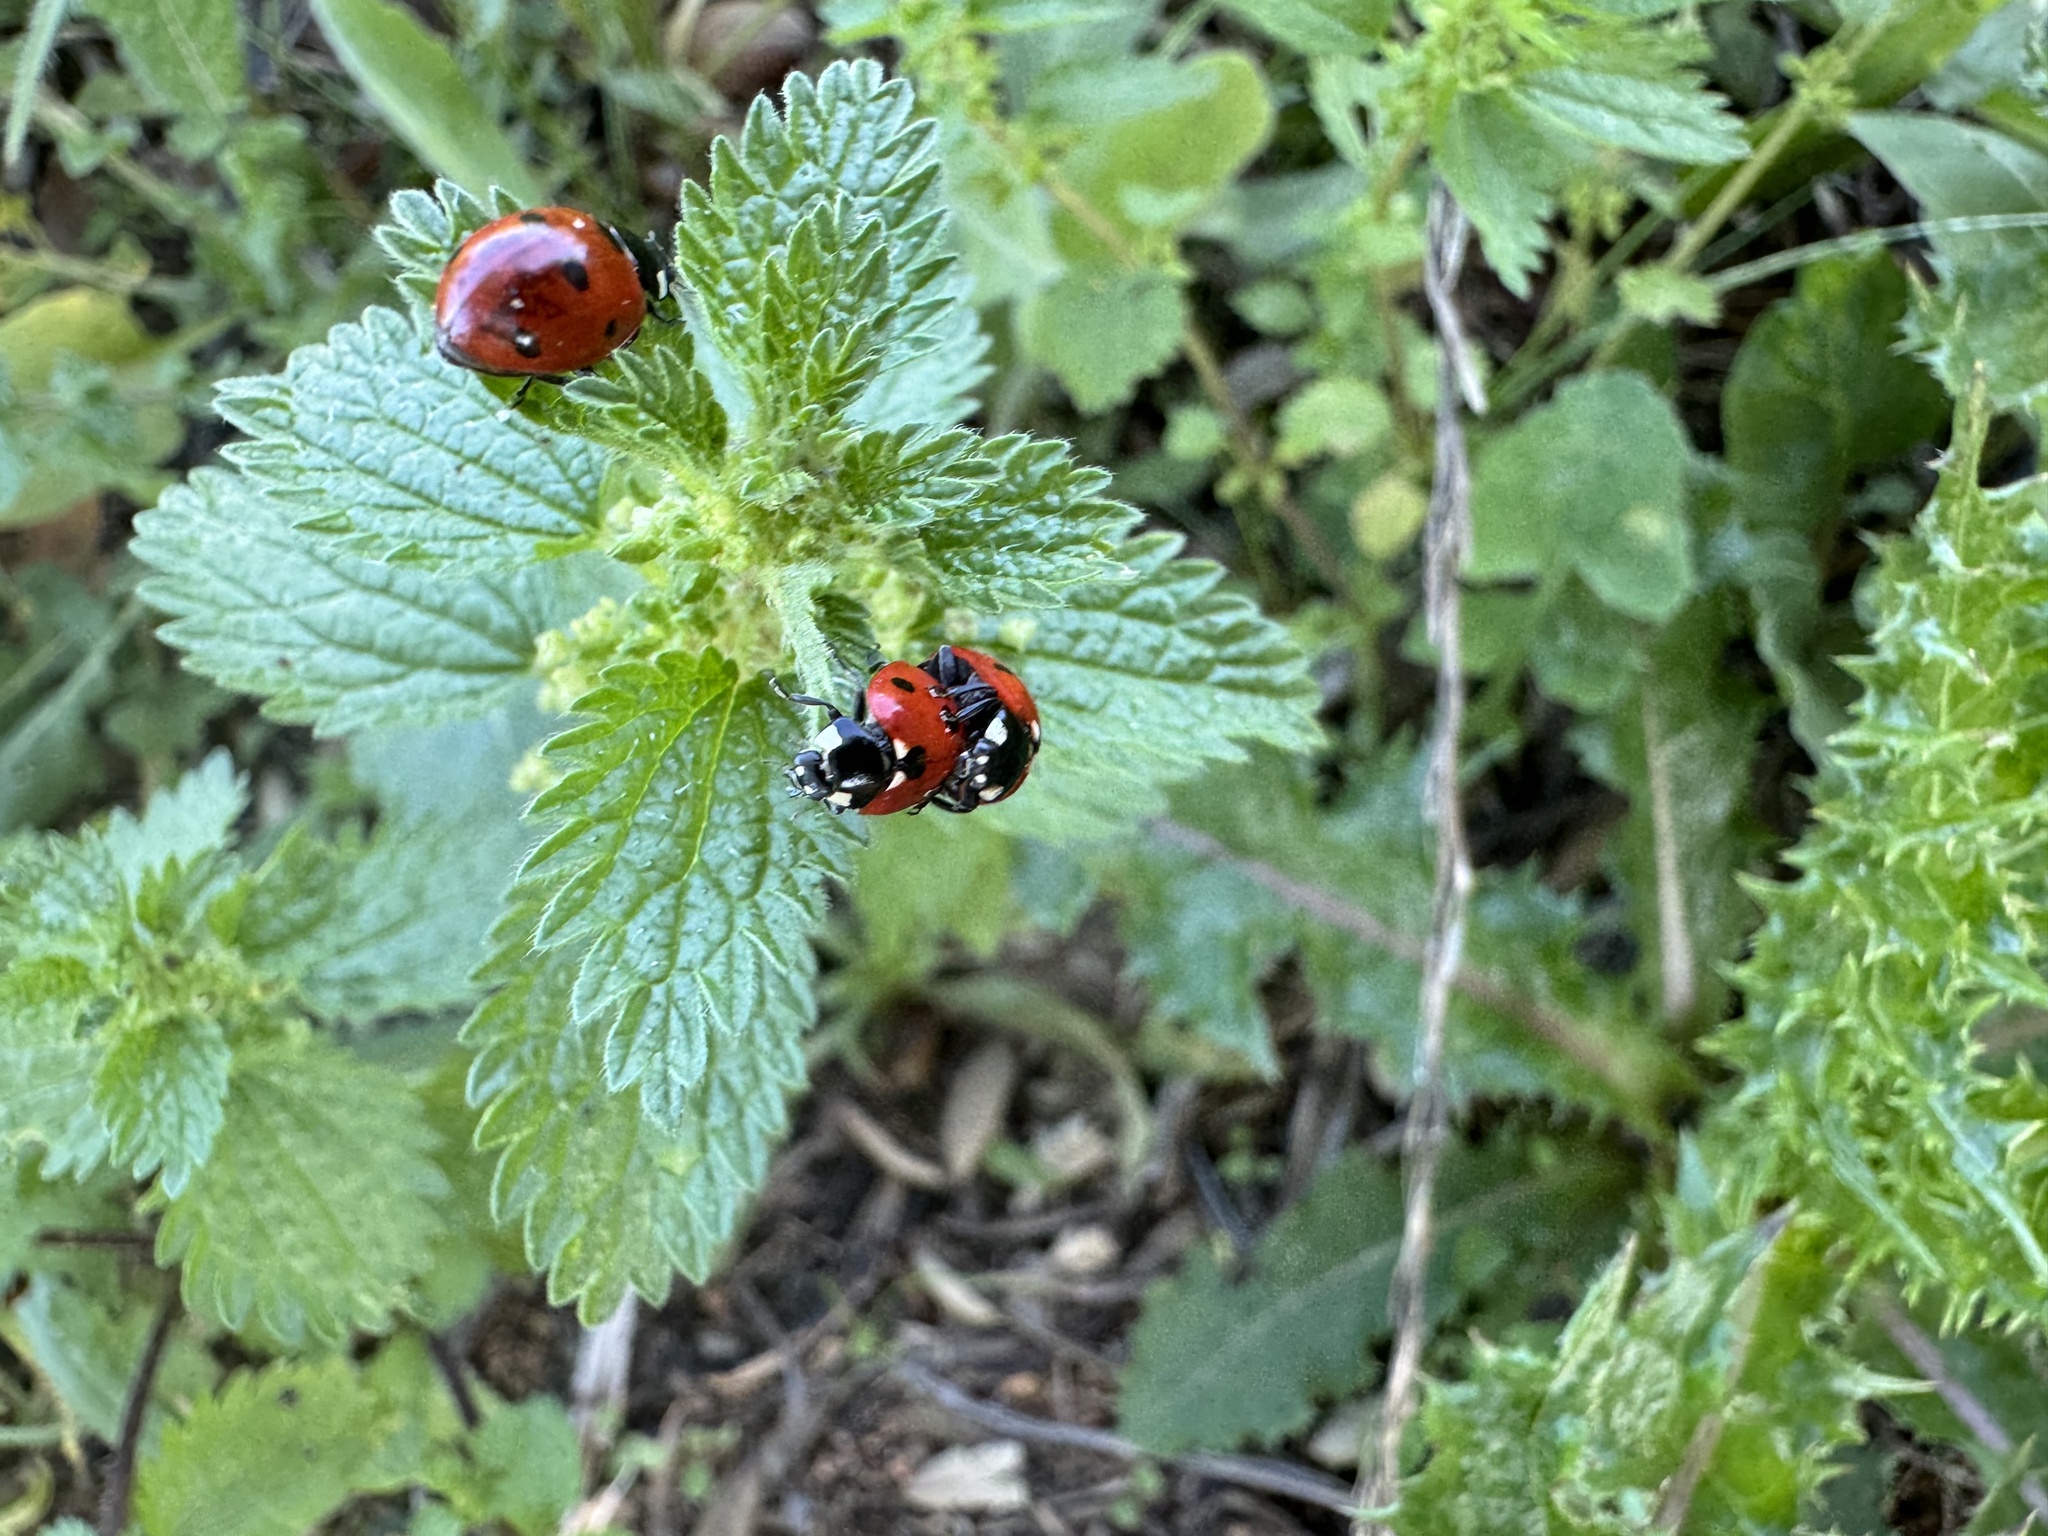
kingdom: Animalia
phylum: Arthropoda
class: Insecta
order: Coleoptera
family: Coccinellidae
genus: Coccinella
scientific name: Coccinella septempunctata
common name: Sevenspotted lady beetle
